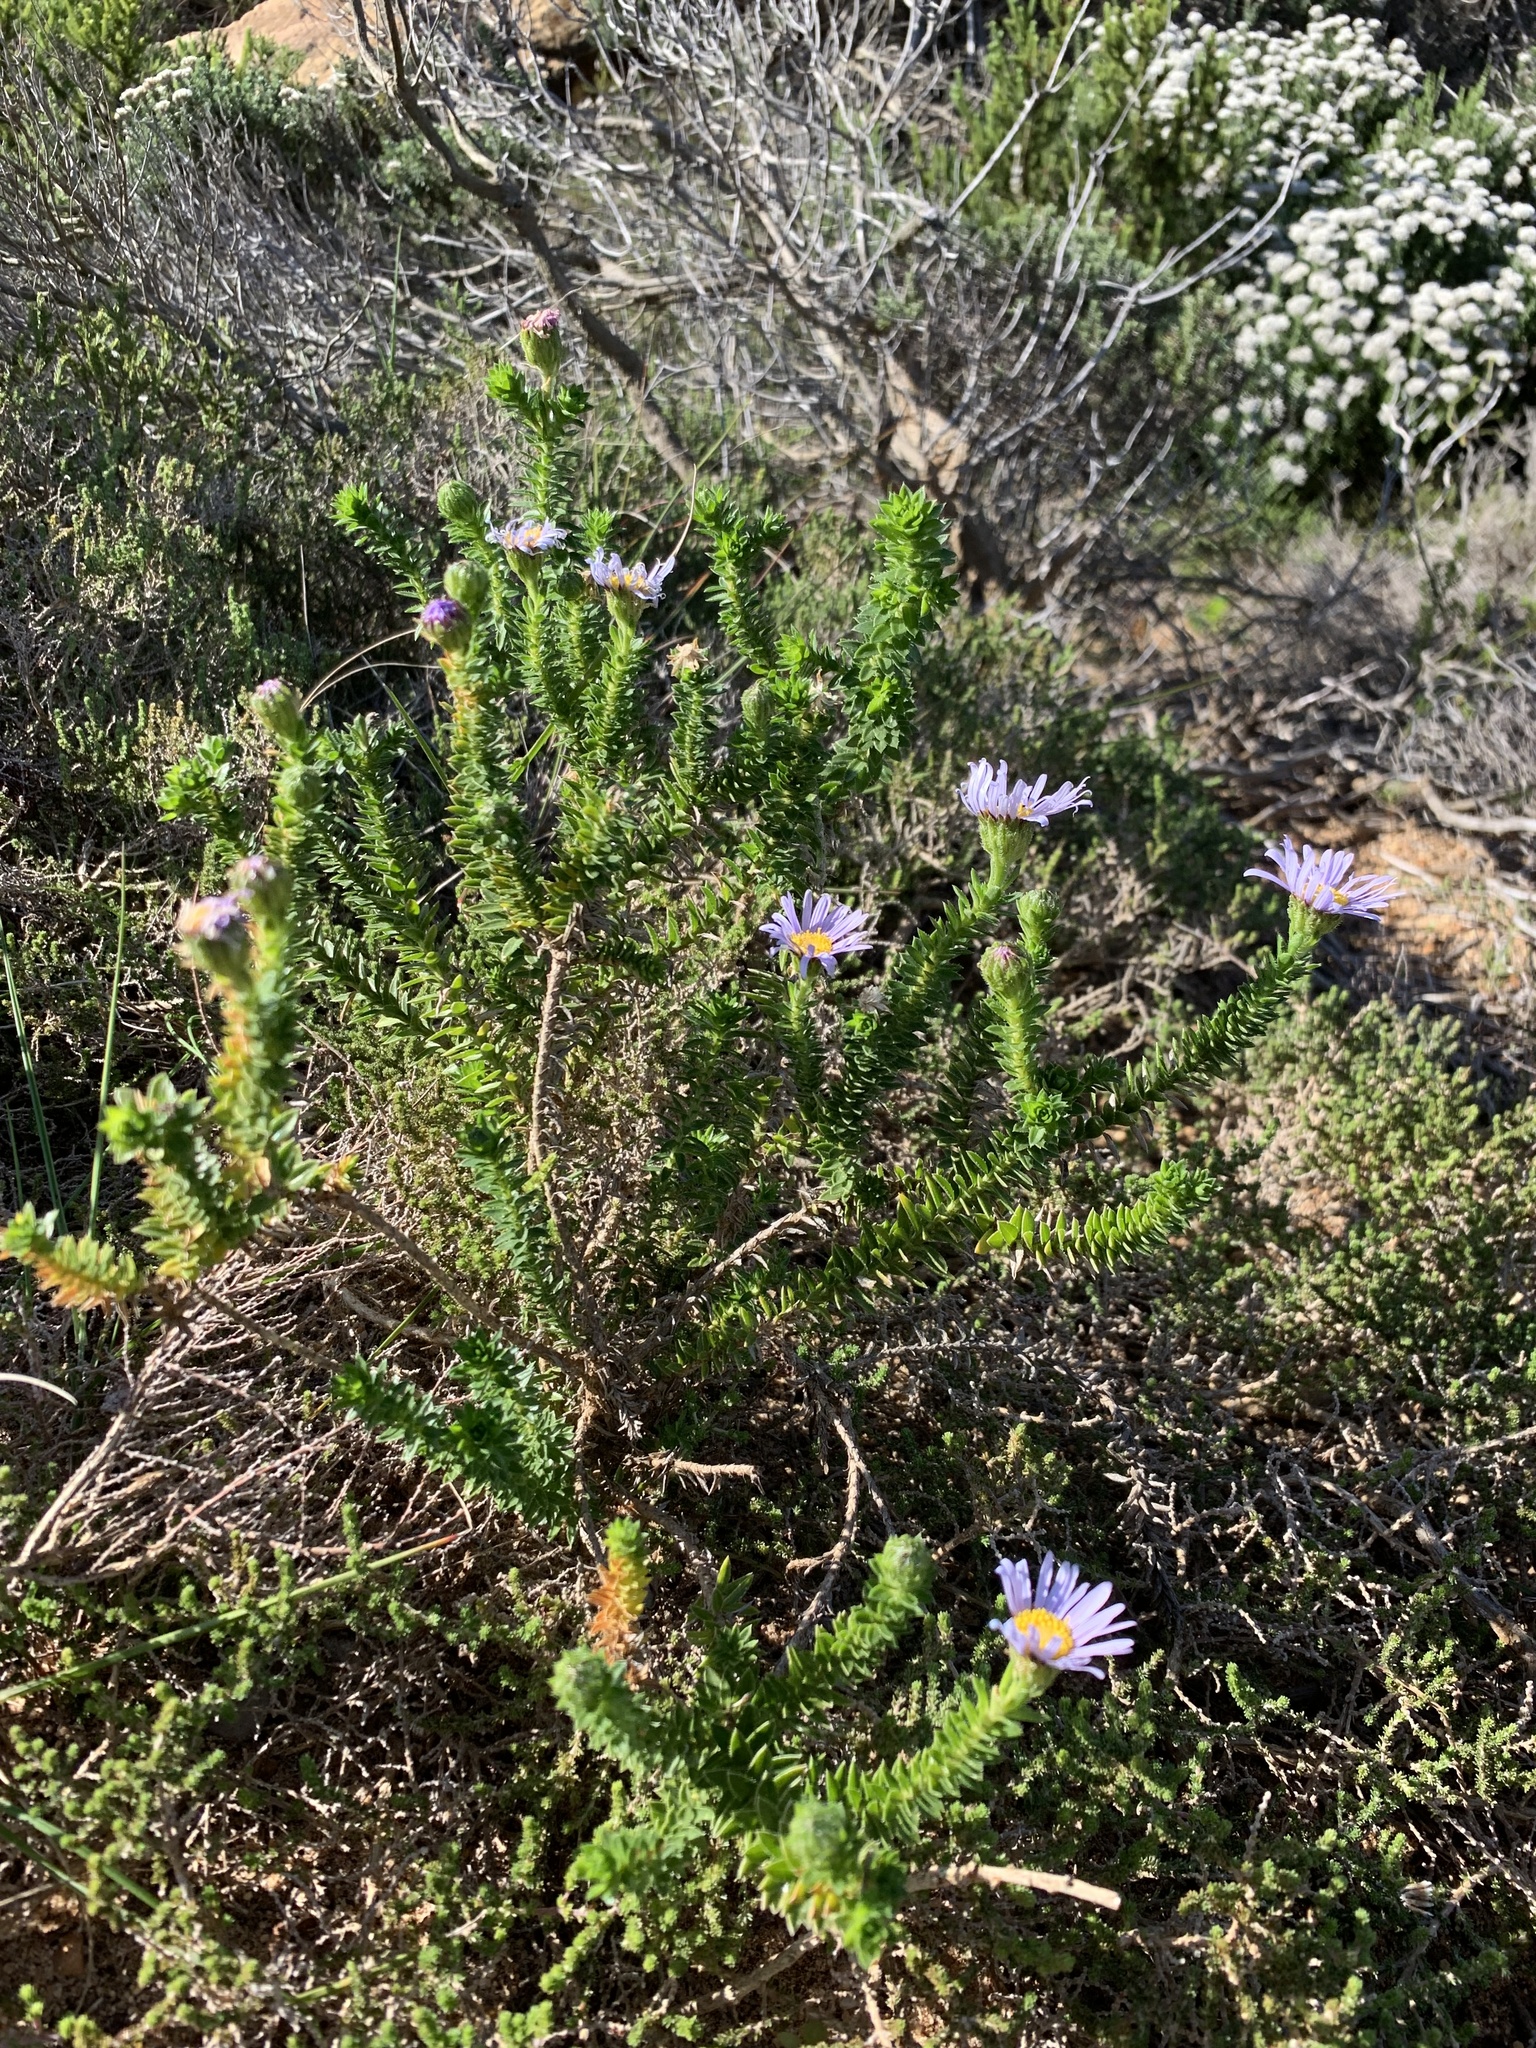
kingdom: Plantae
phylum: Tracheophyta
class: Magnoliopsida
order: Asterales
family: Asteraceae
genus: Felicia
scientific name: Felicia echinata
